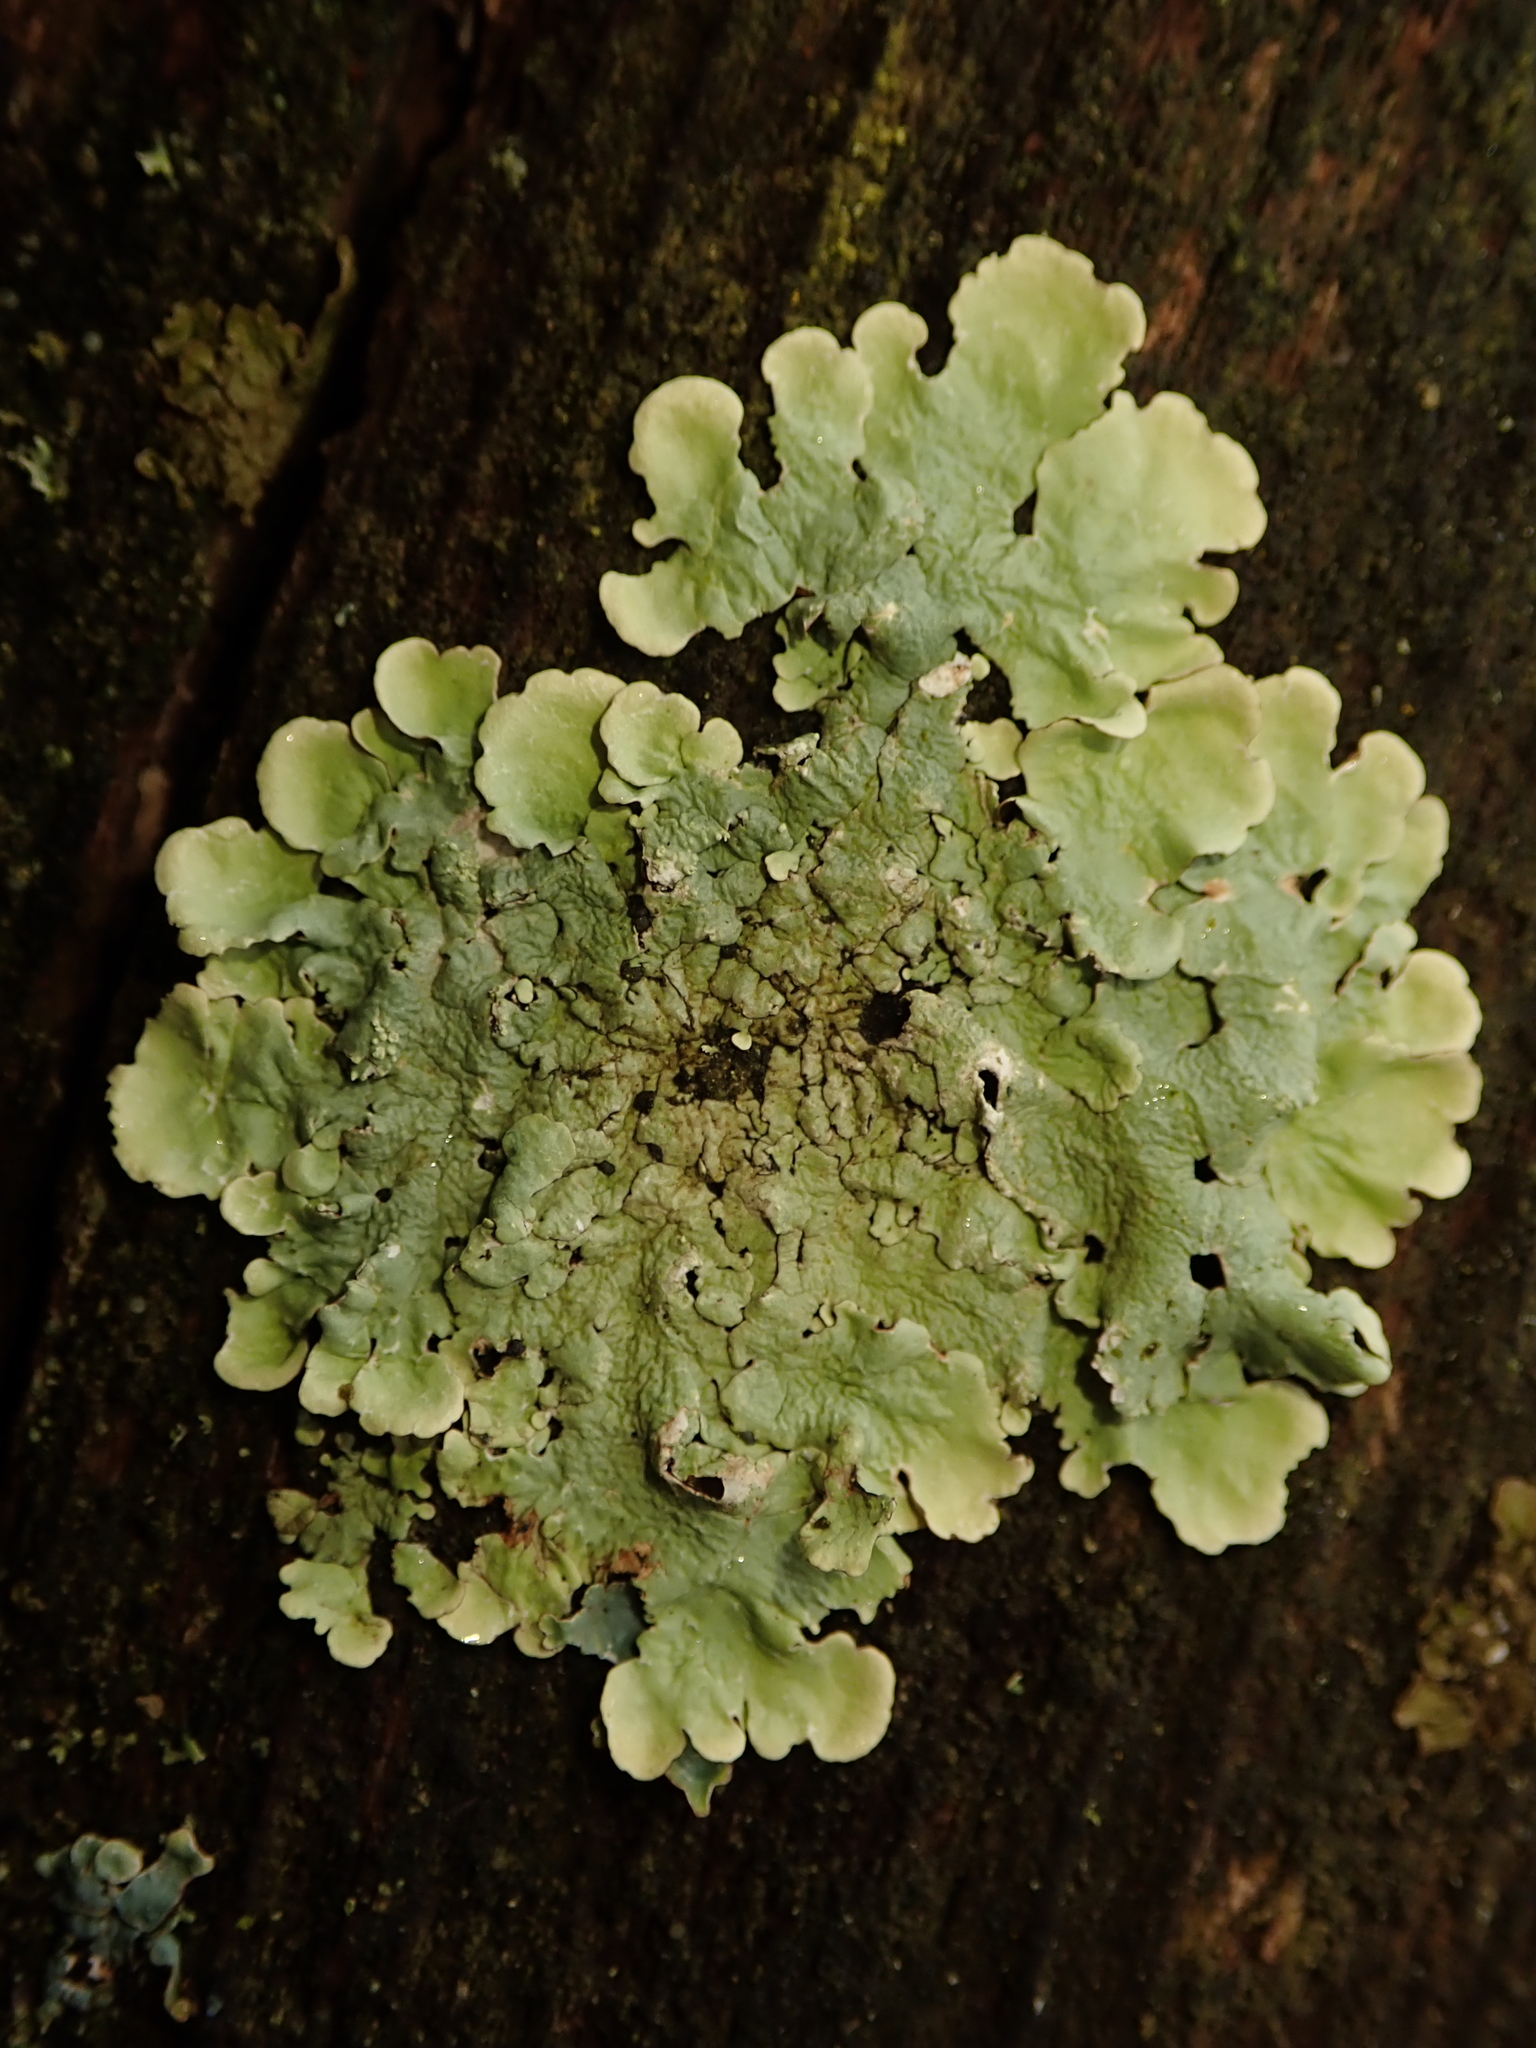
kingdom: Fungi
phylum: Ascomycota
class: Lecanoromycetes
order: Lecanorales
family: Parmeliaceae
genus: Flavoparmelia
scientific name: Flavoparmelia caperata
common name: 40-mile per hour lichen
